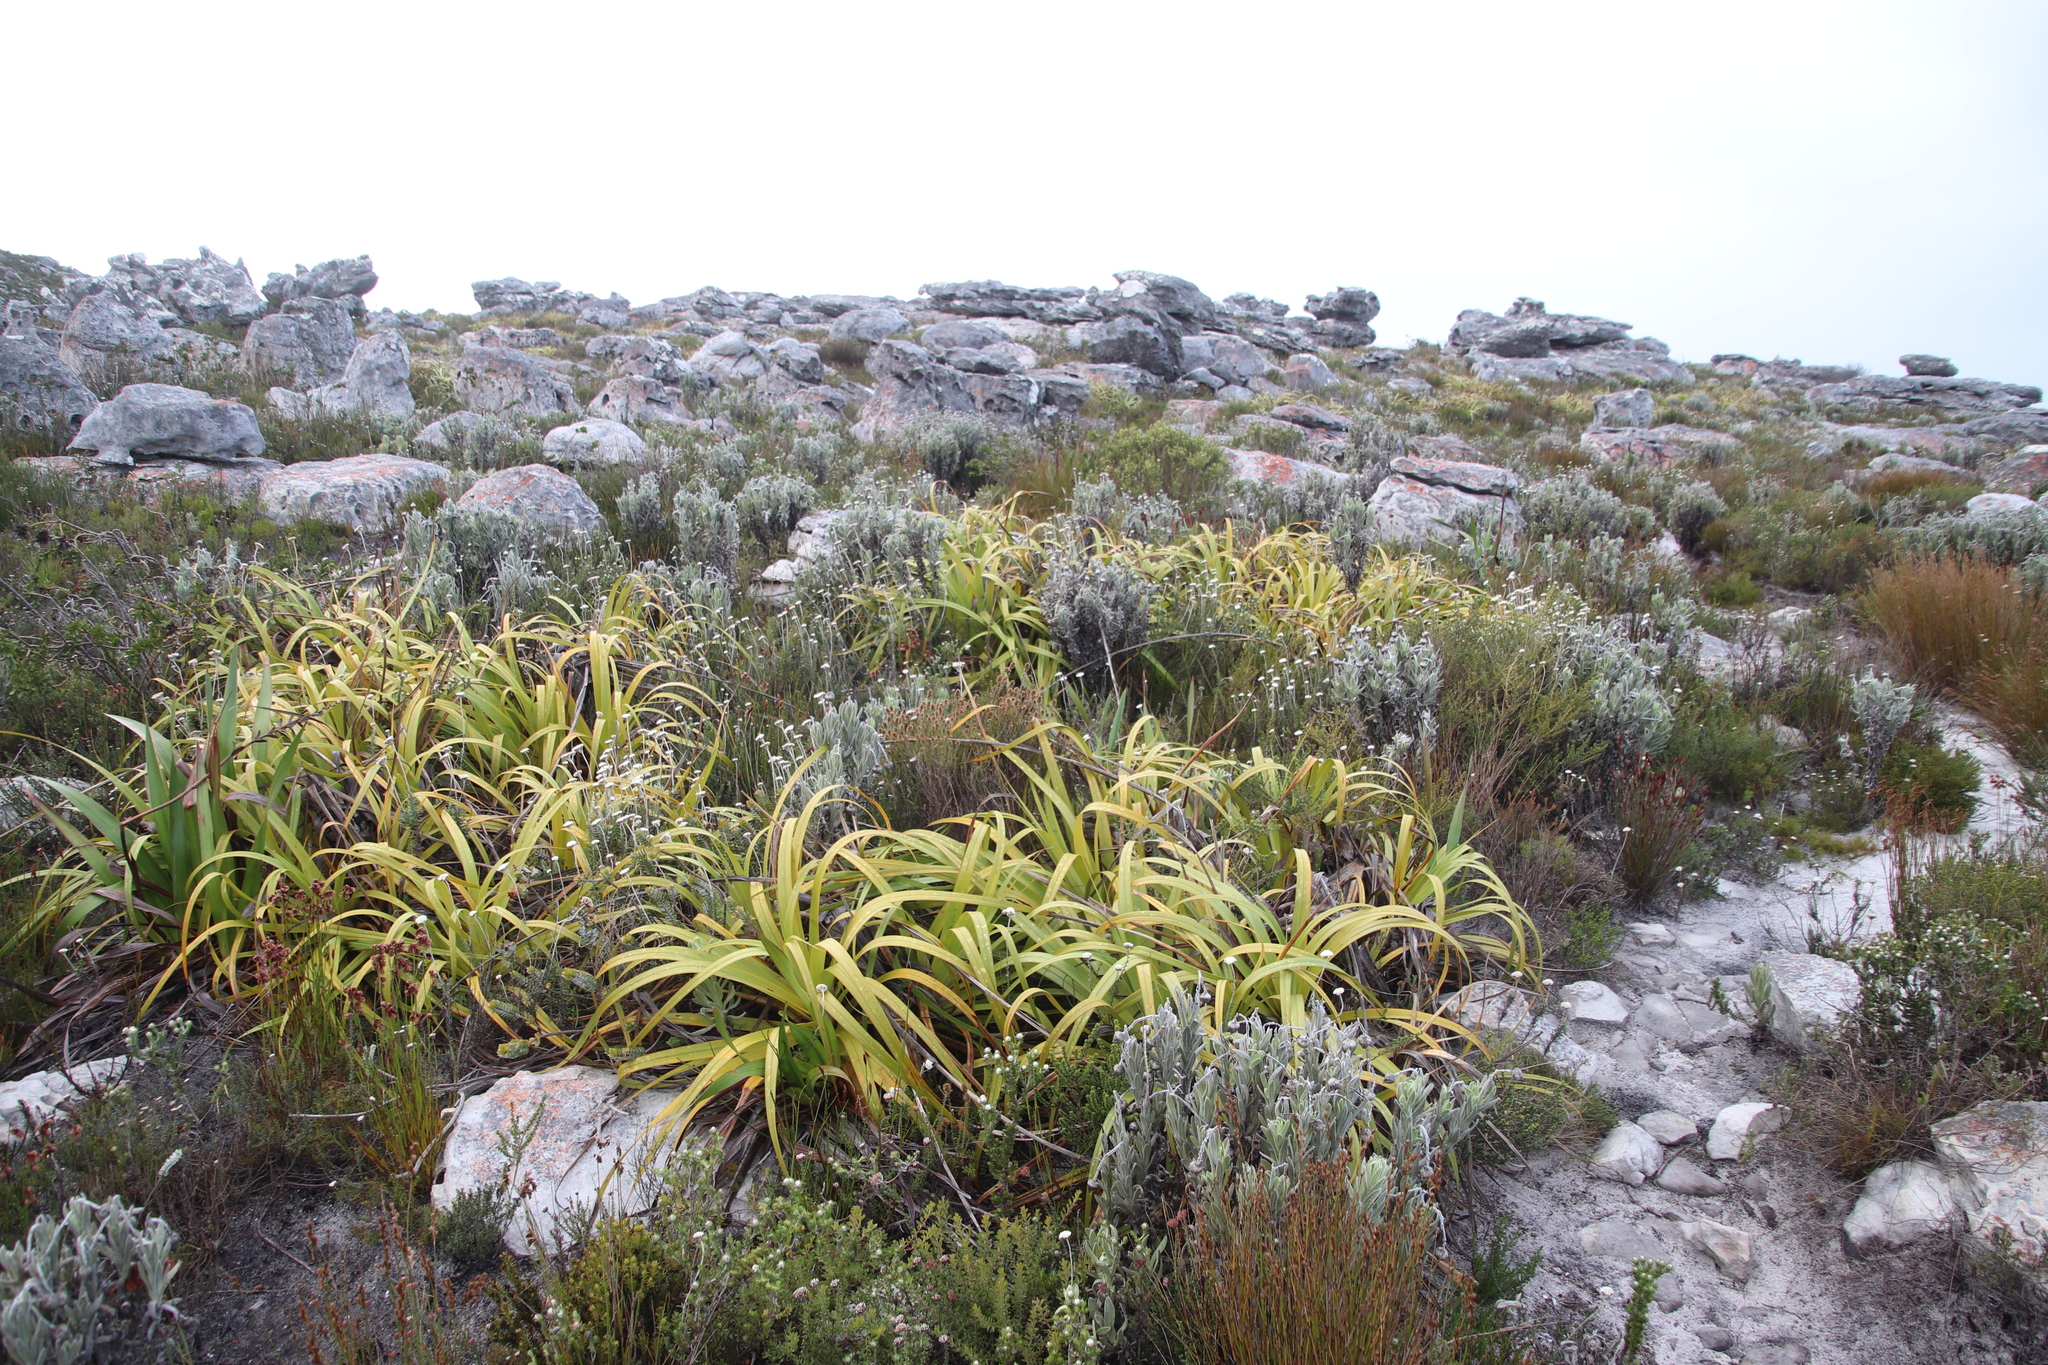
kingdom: Plantae
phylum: Tracheophyta
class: Liliopsida
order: Poales
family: Cyperaceae
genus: Tetraria
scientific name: Tetraria thermalis
